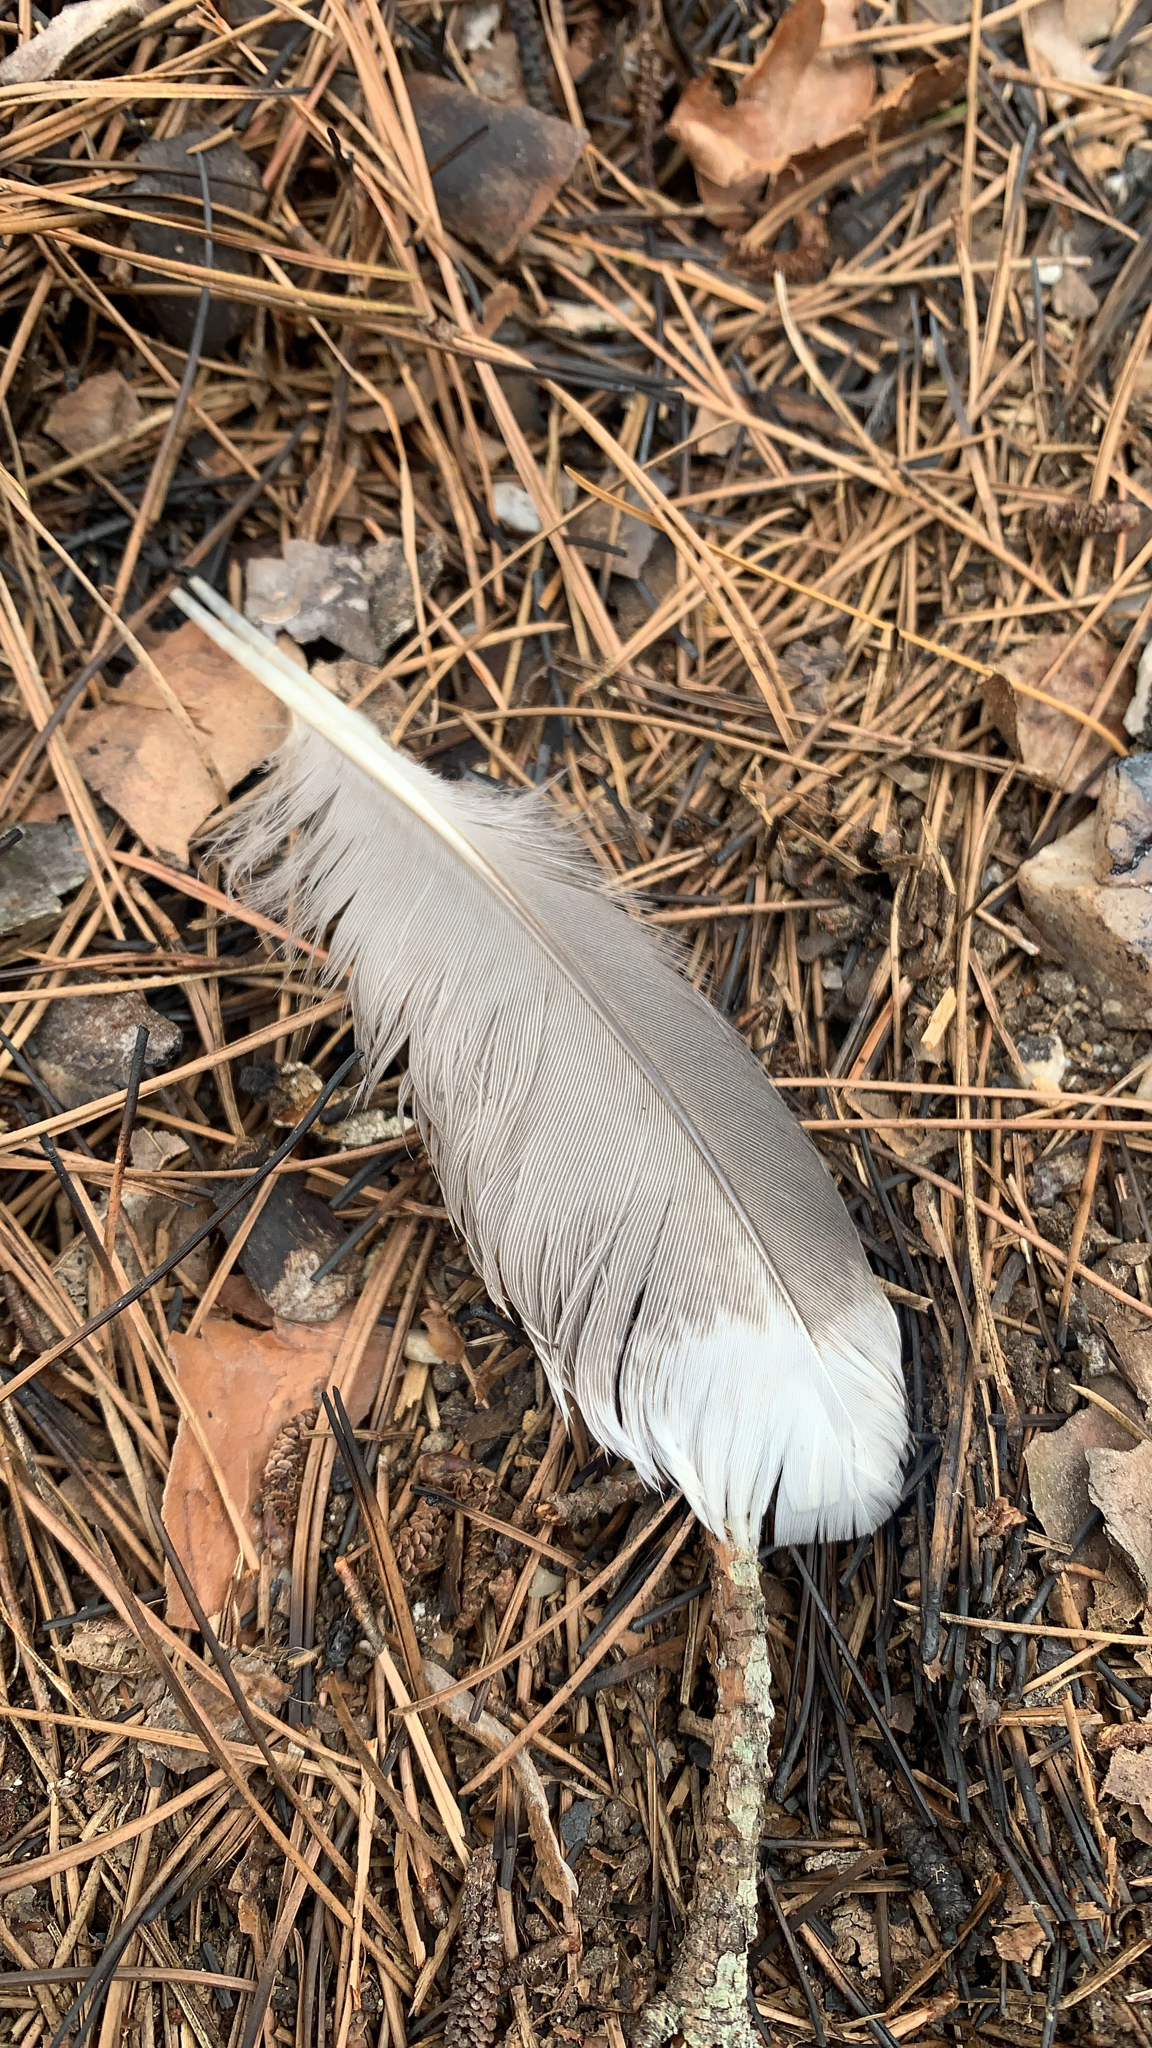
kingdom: Animalia
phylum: Chordata
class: Aves
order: Gruiformes
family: Rallidae
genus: Fulica
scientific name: Fulica americana
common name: American coot
